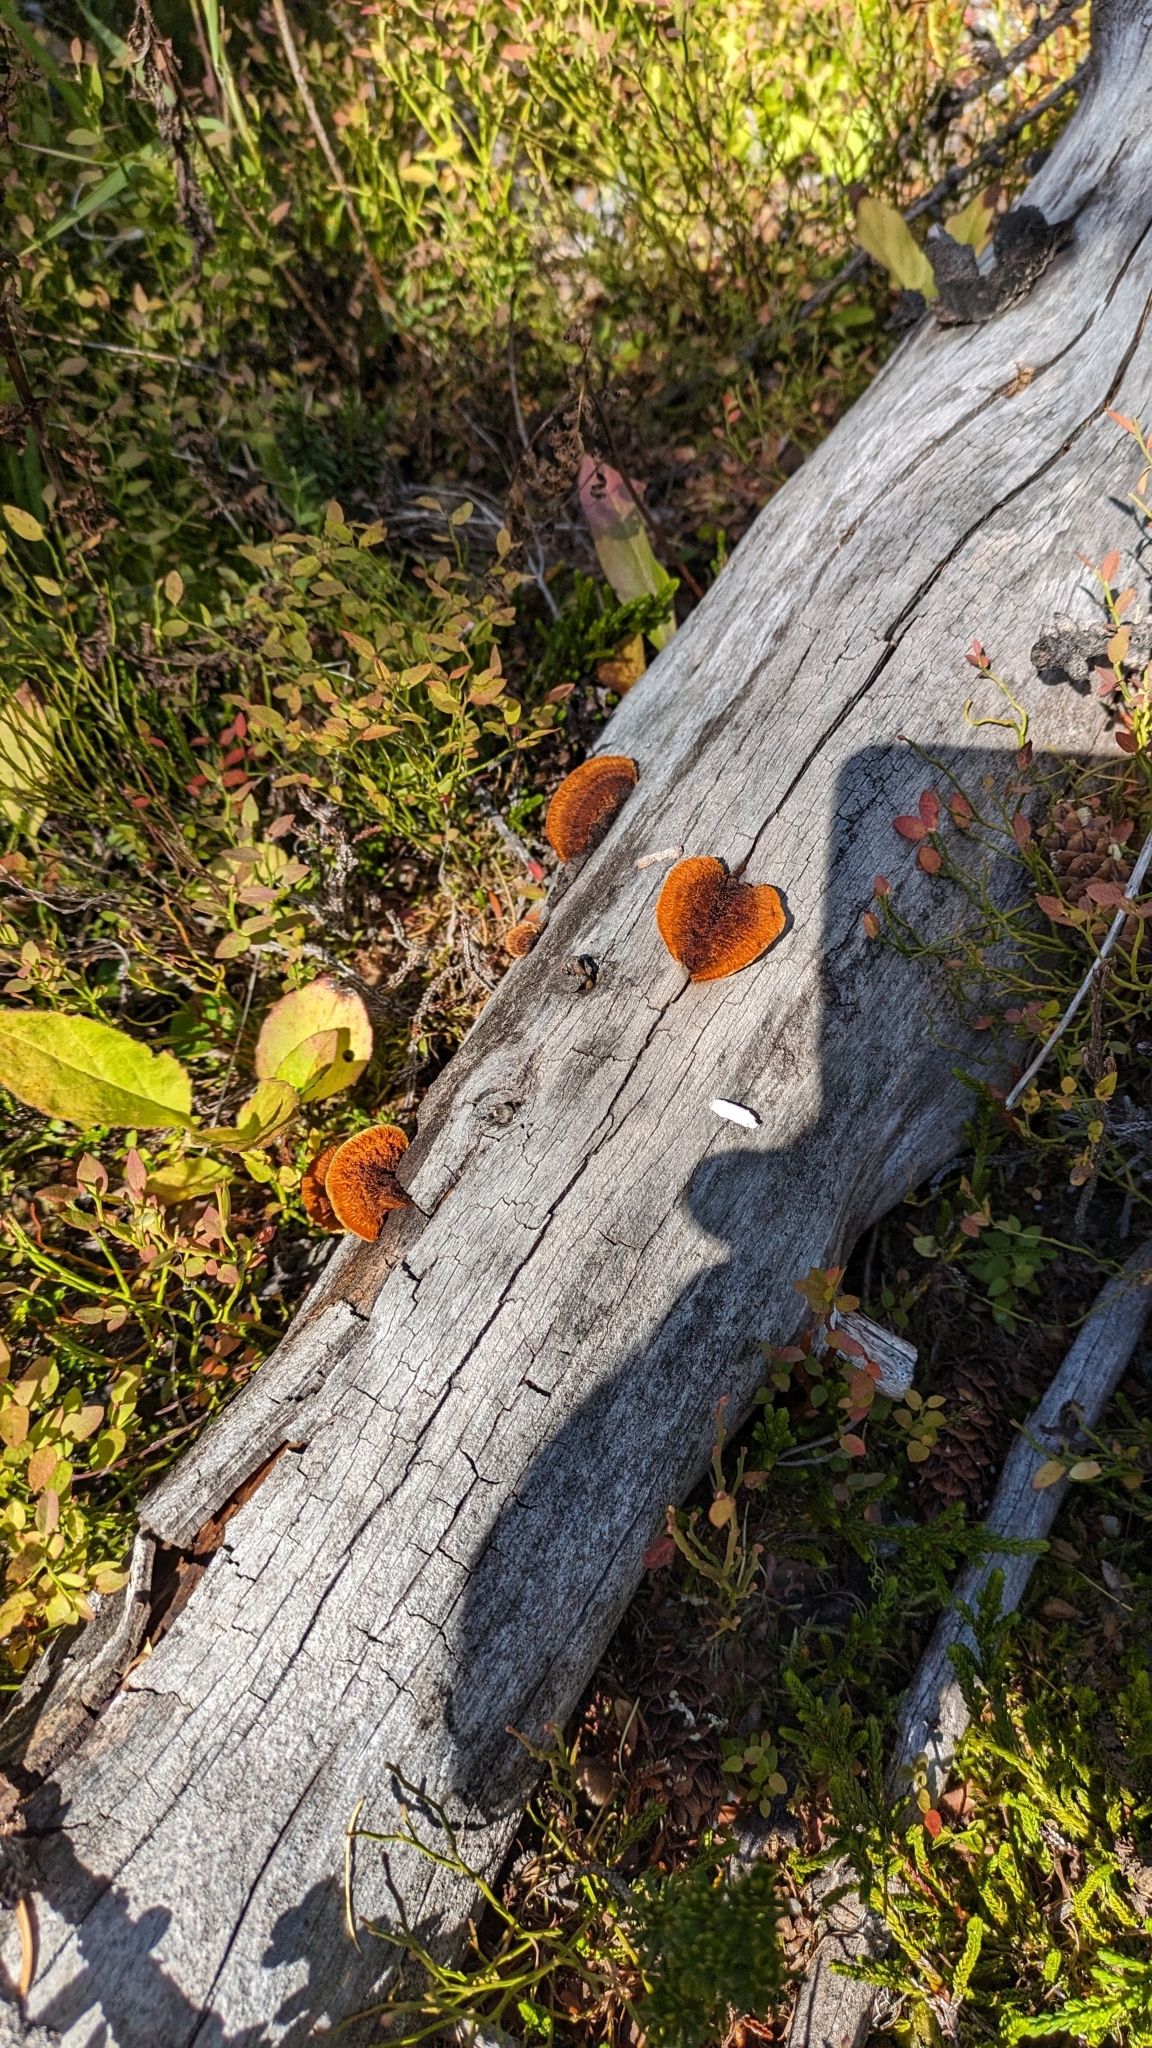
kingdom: Fungi
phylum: Basidiomycota
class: Agaricomycetes
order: Gloeophyllales
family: Gloeophyllaceae
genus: Gloeophyllum
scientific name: Gloeophyllum sepiarium
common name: Conifer mazegill
